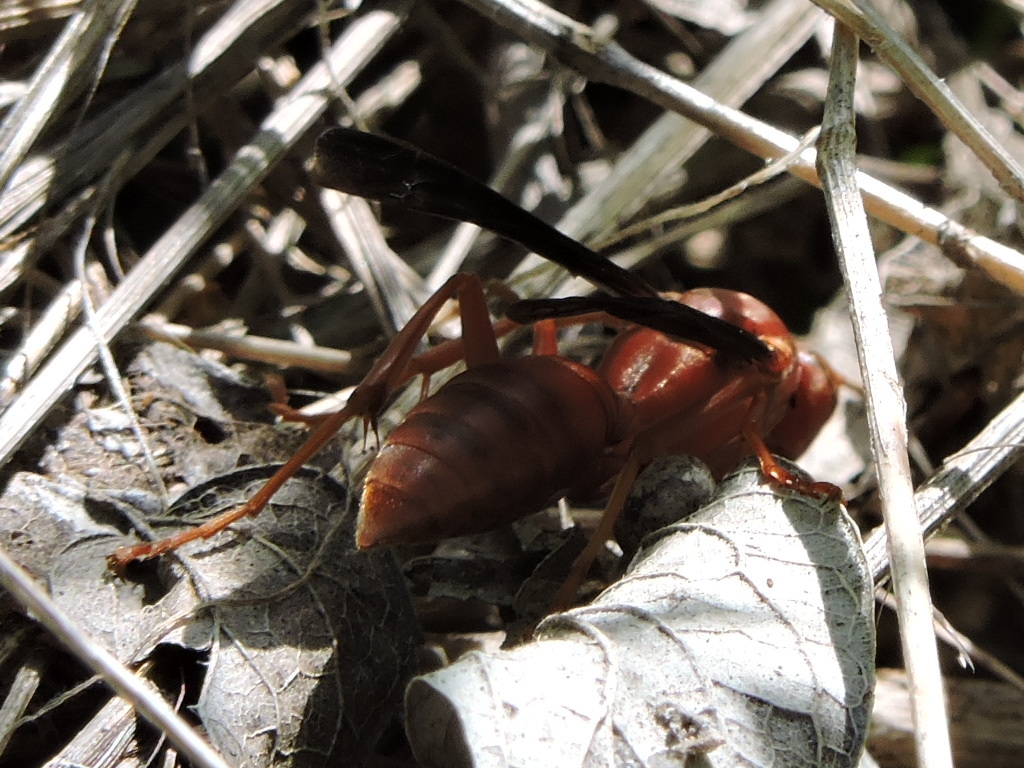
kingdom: Animalia
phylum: Arthropoda
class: Insecta
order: Hymenoptera
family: Eumenidae
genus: Polistes
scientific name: Polistes
